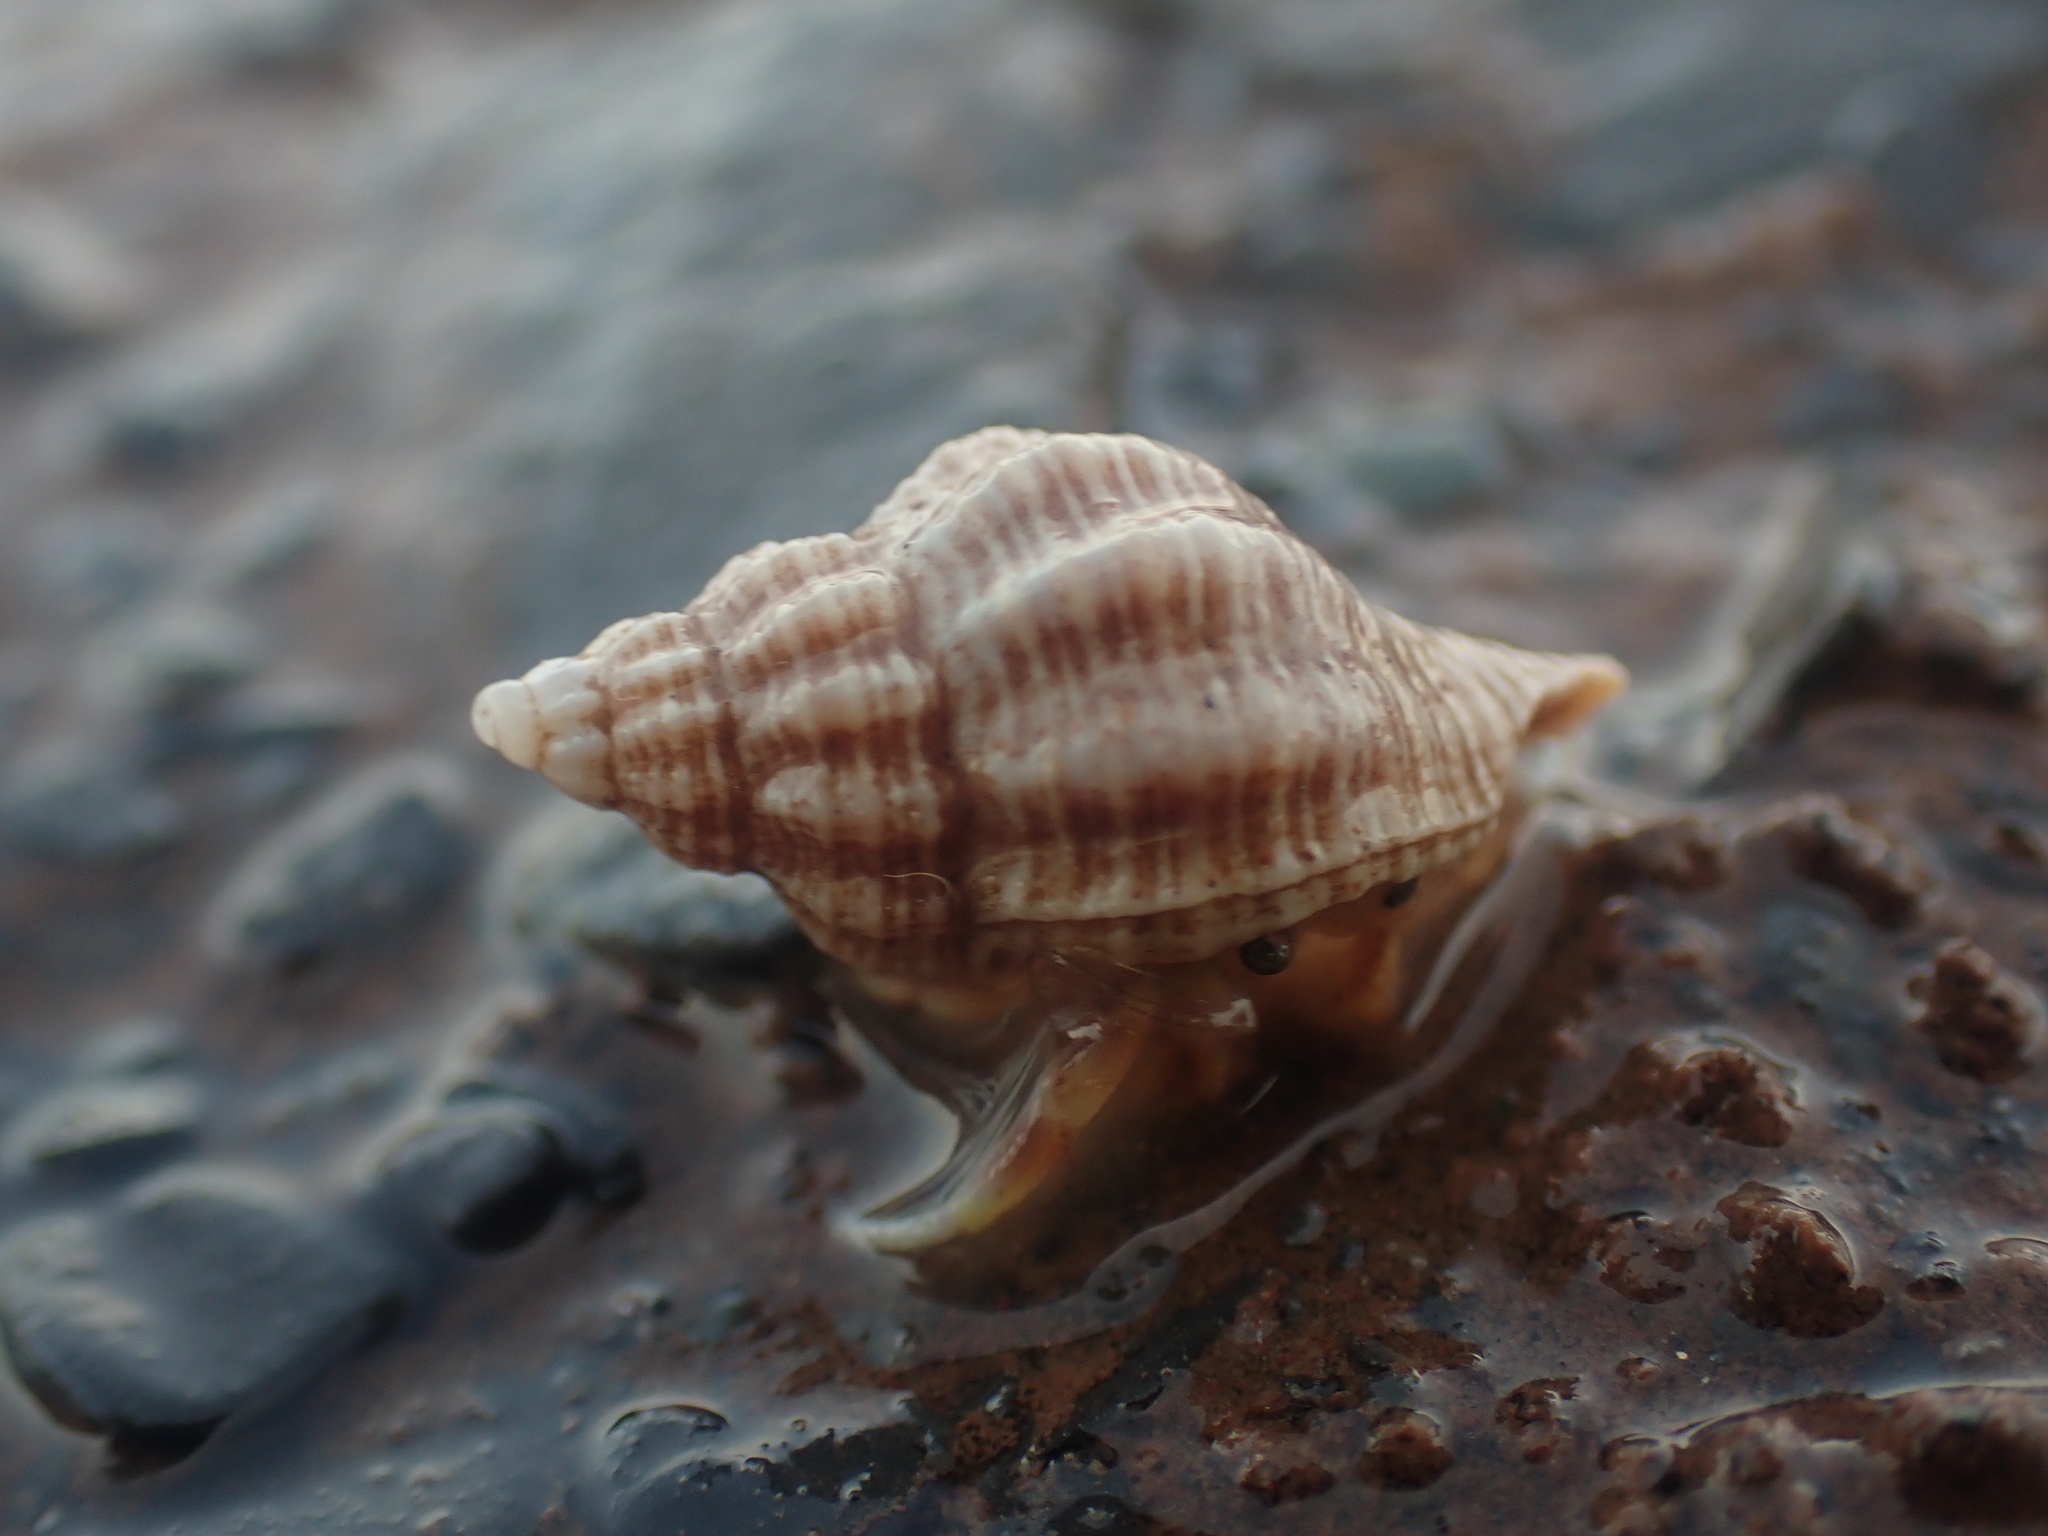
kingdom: Animalia
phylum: Mollusca
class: Gastropoda
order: Neogastropoda
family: Muricidae
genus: Urosalpinx
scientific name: Urosalpinx cinerea
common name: American sting winkle
